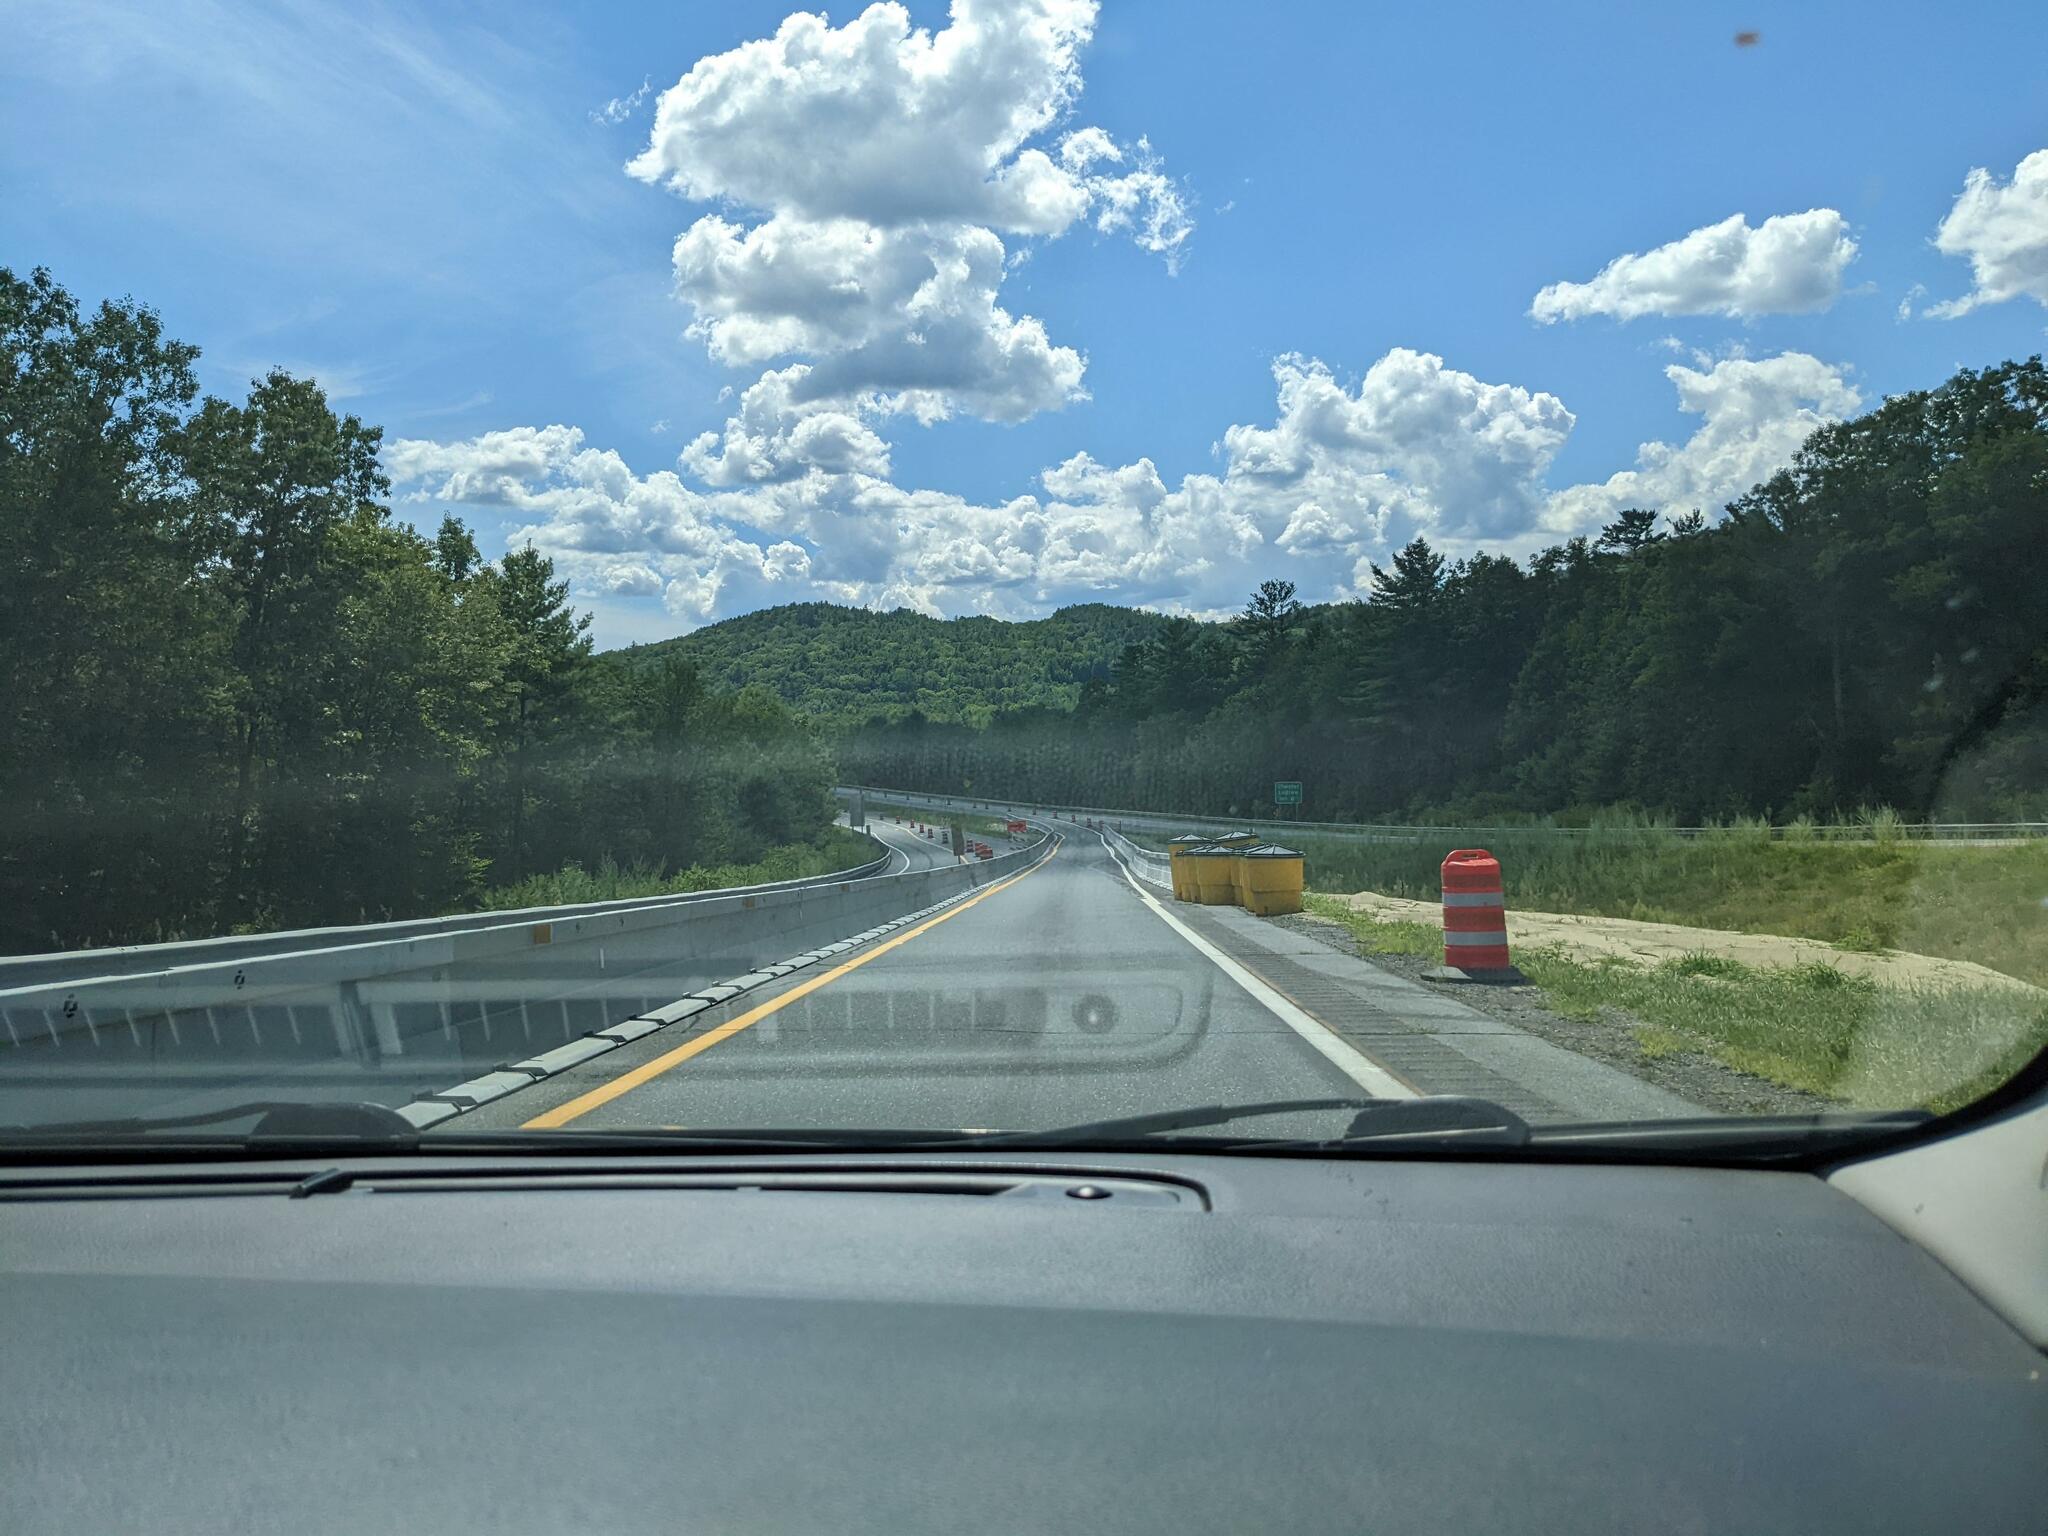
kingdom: Plantae
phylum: Tracheophyta
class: Pinopsida
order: Pinales
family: Pinaceae
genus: Pinus
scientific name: Pinus strobus
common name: Weymouth pine
